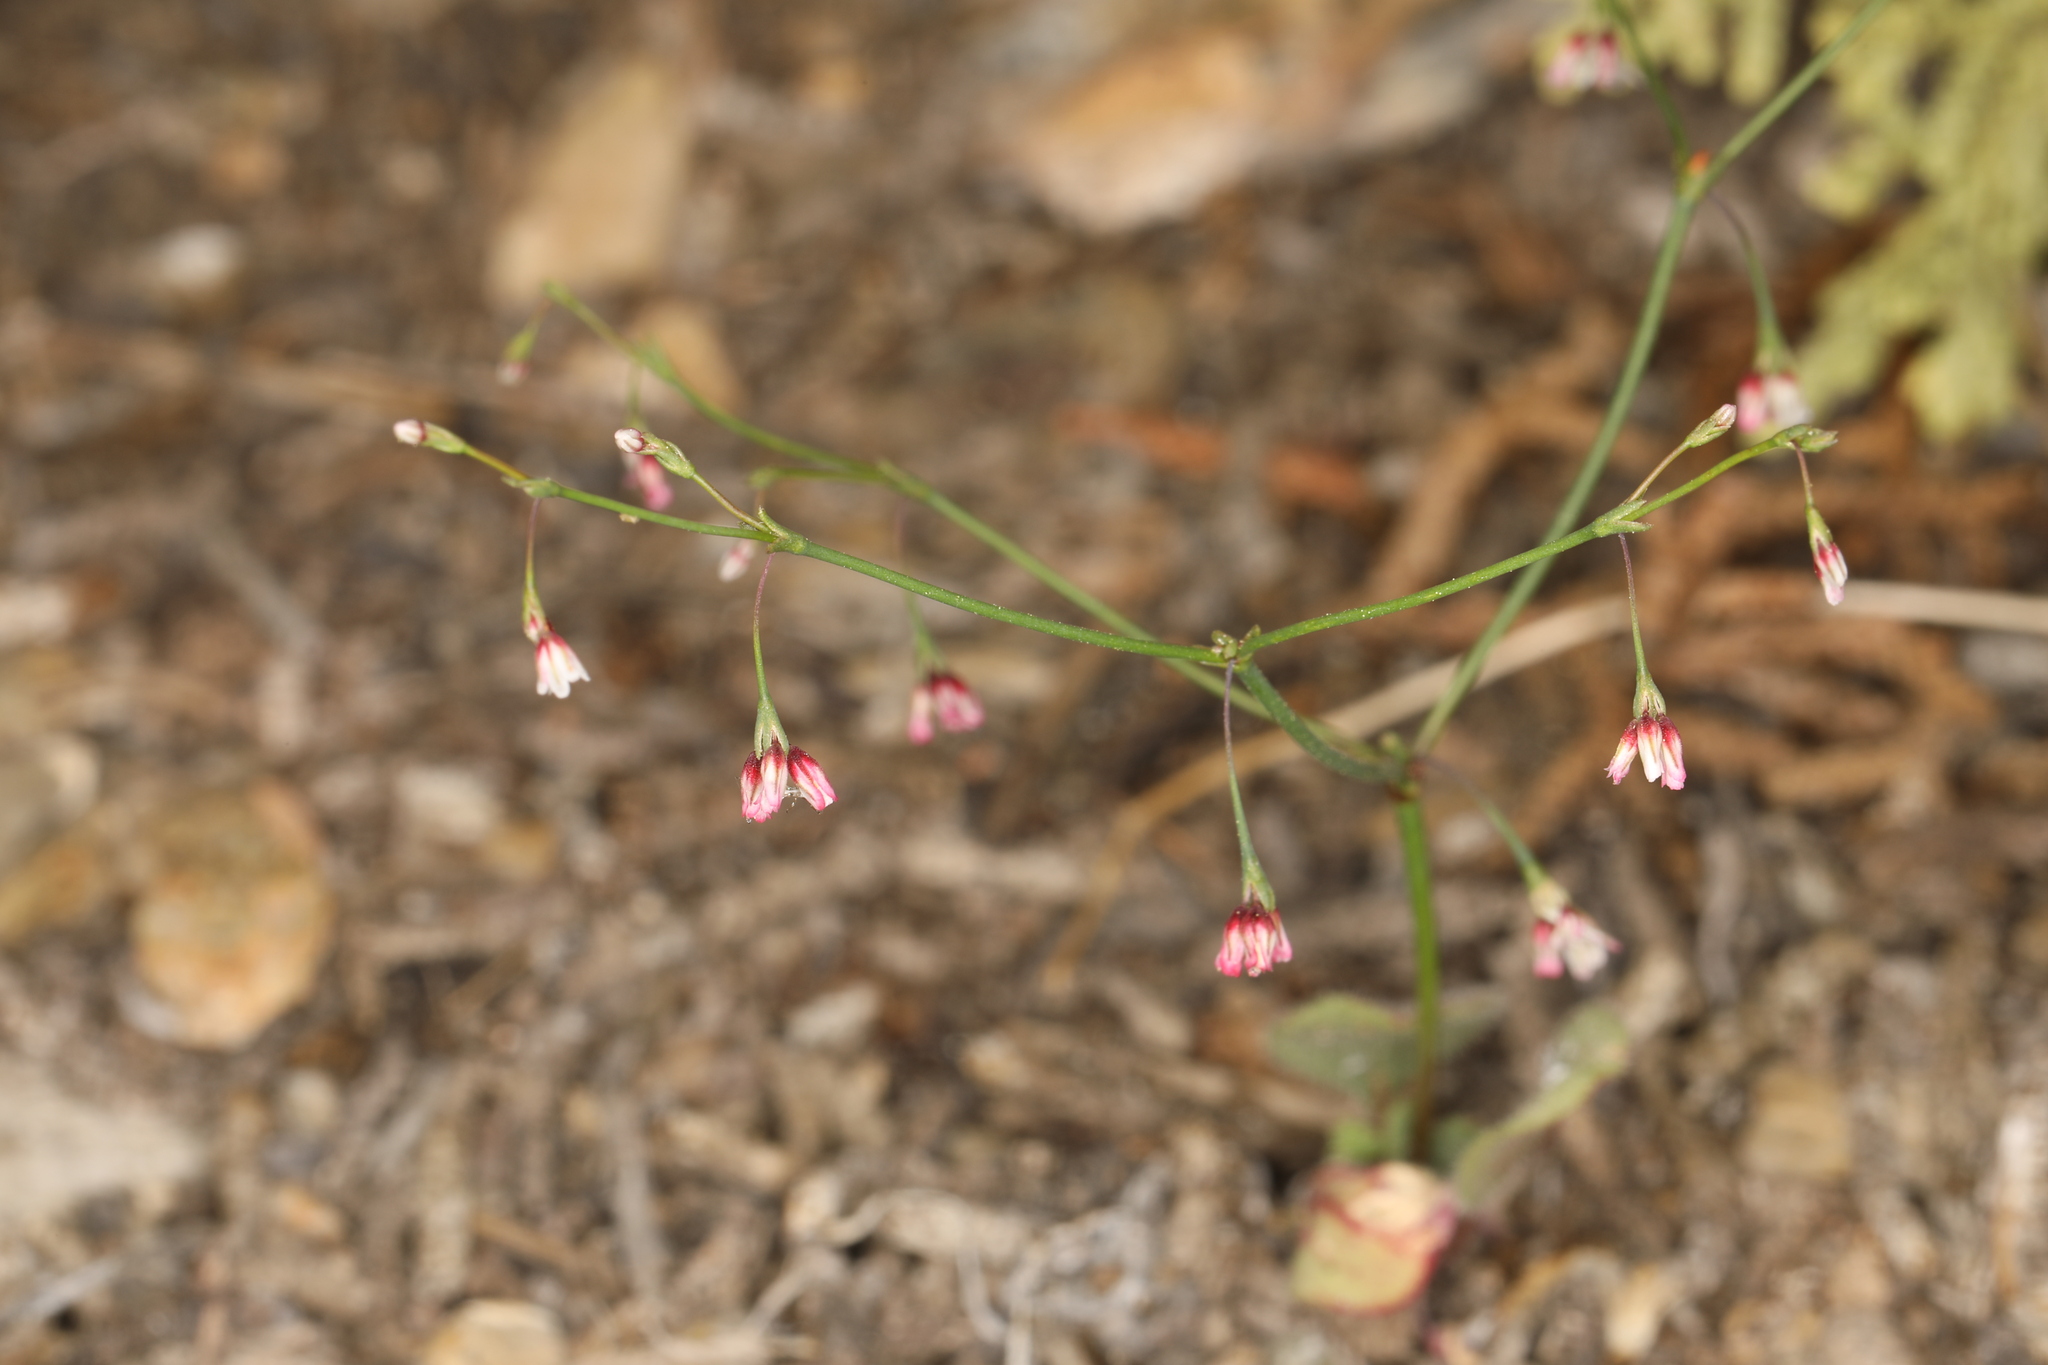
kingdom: Plantae
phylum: Tracheophyta
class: Magnoliopsida
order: Caryophyllales
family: Polygonaceae
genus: Eriogonum
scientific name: Eriogonum esmeraldense
